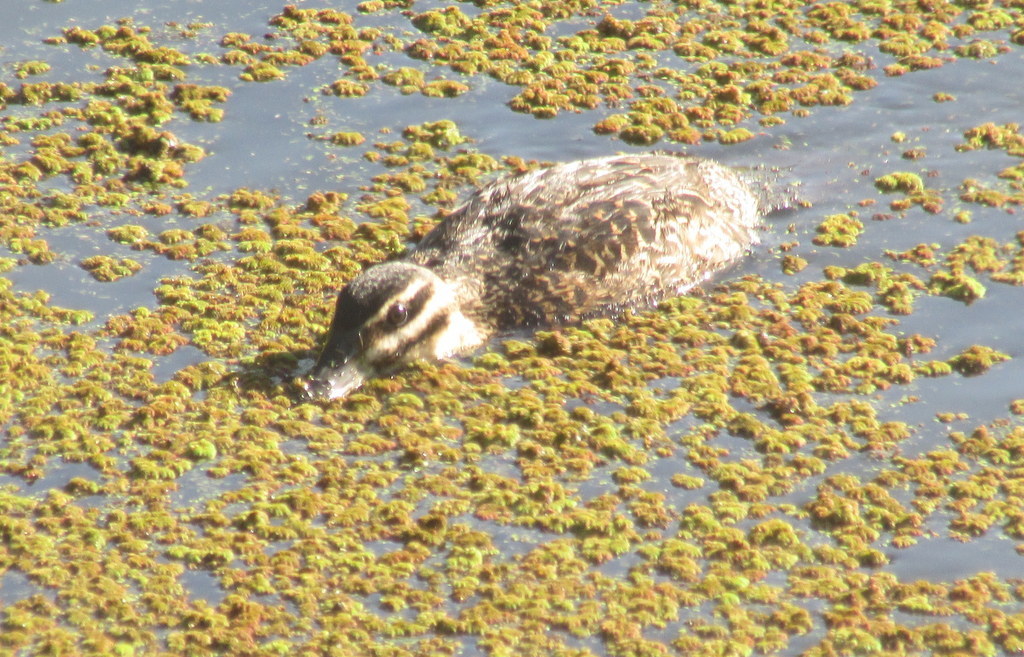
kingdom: Animalia
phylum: Chordata
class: Aves
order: Anseriformes
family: Anatidae
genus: Nomonyx
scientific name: Nomonyx dominicus
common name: Masked duck
